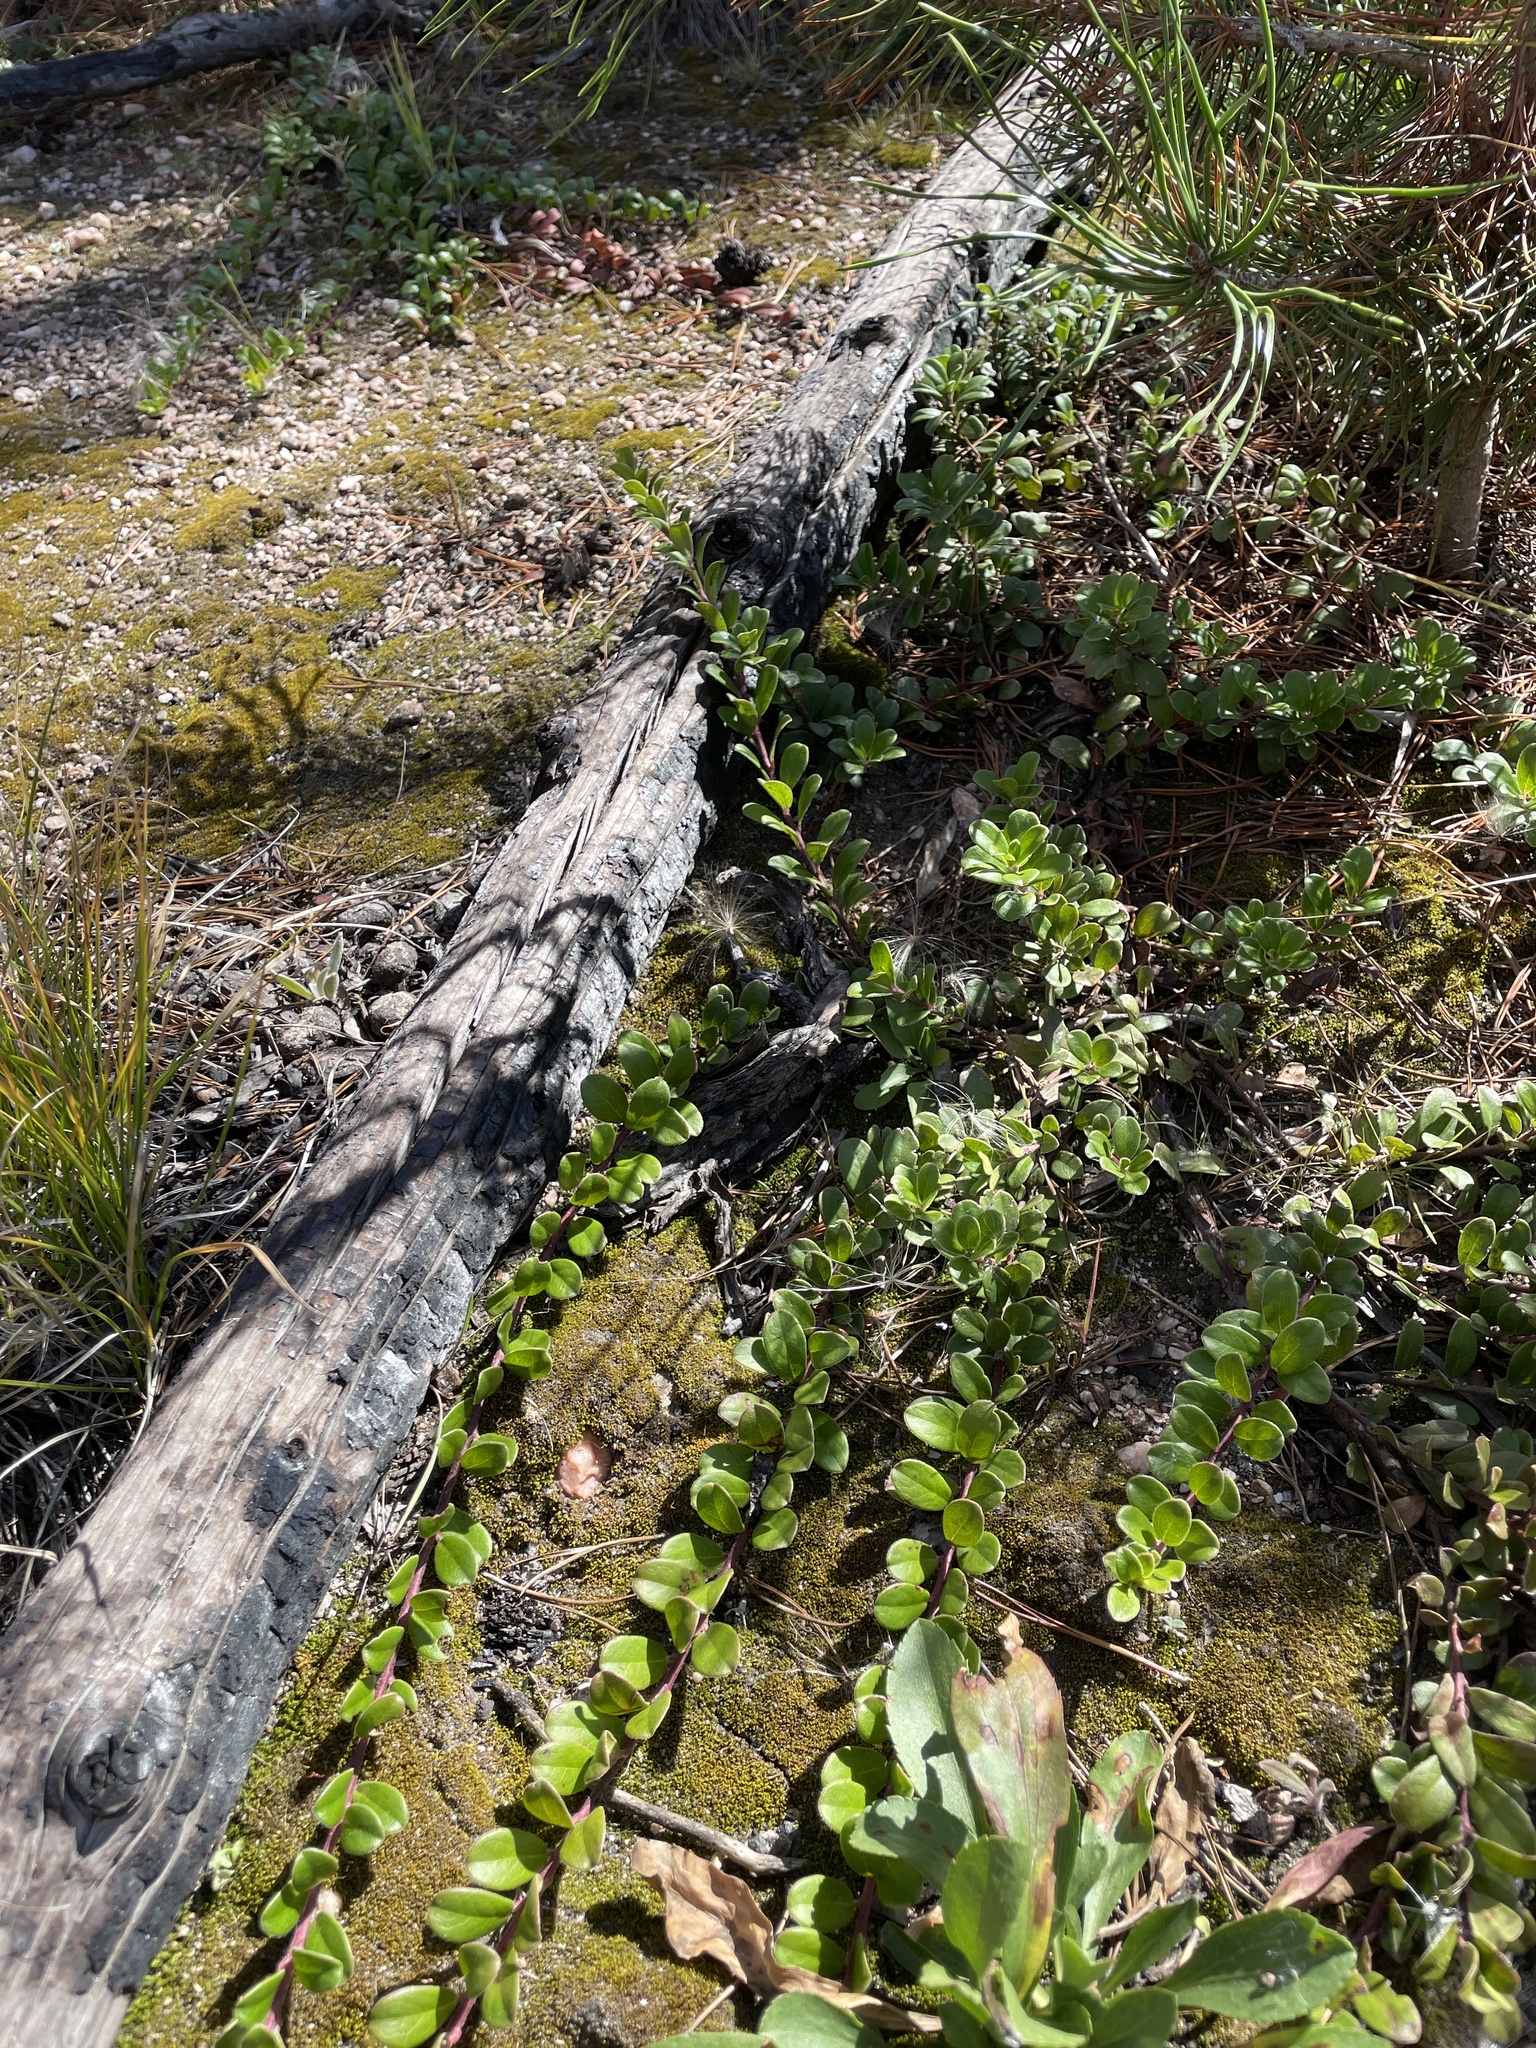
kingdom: Plantae
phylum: Tracheophyta
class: Magnoliopsida
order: Ericales
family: Ericaceae
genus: Arctostaphylos
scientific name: Arctostaphylos uva-ursi
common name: Bearberry
